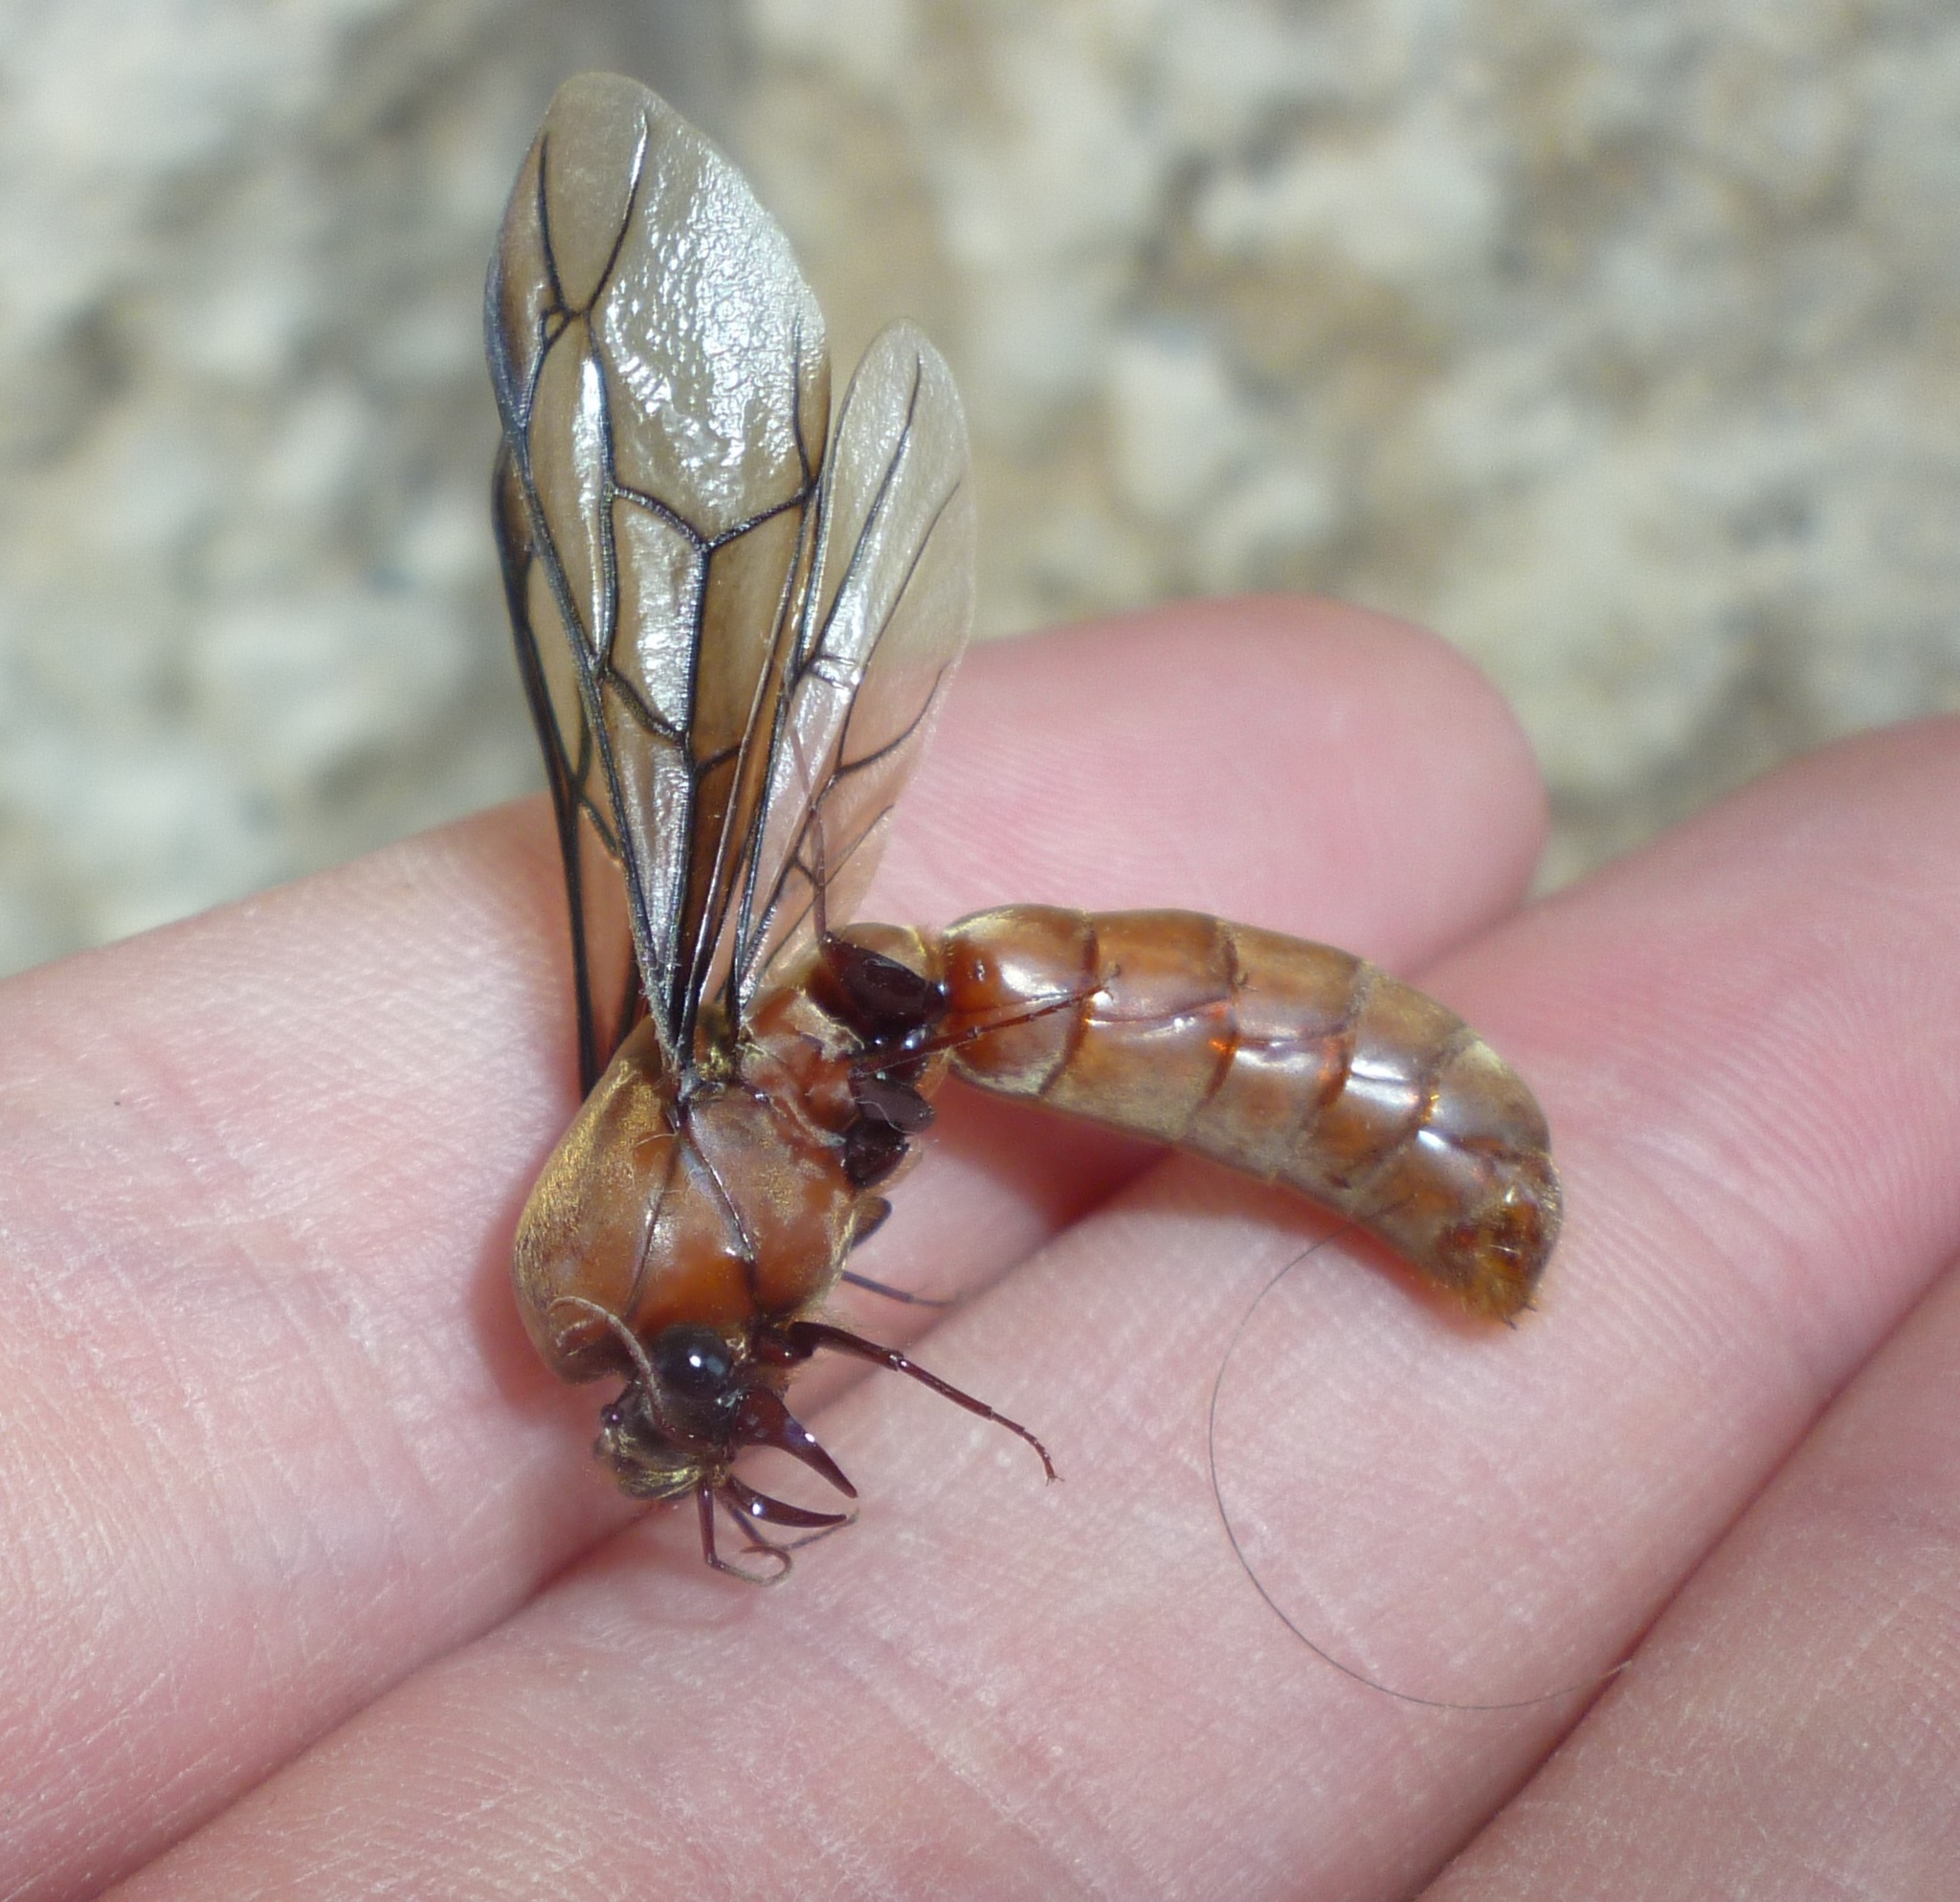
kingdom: Animalia
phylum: Arthropoda
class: Insecta
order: Hymenoptera
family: Formicidae
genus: Dorylus
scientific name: Dorylus fulvus
